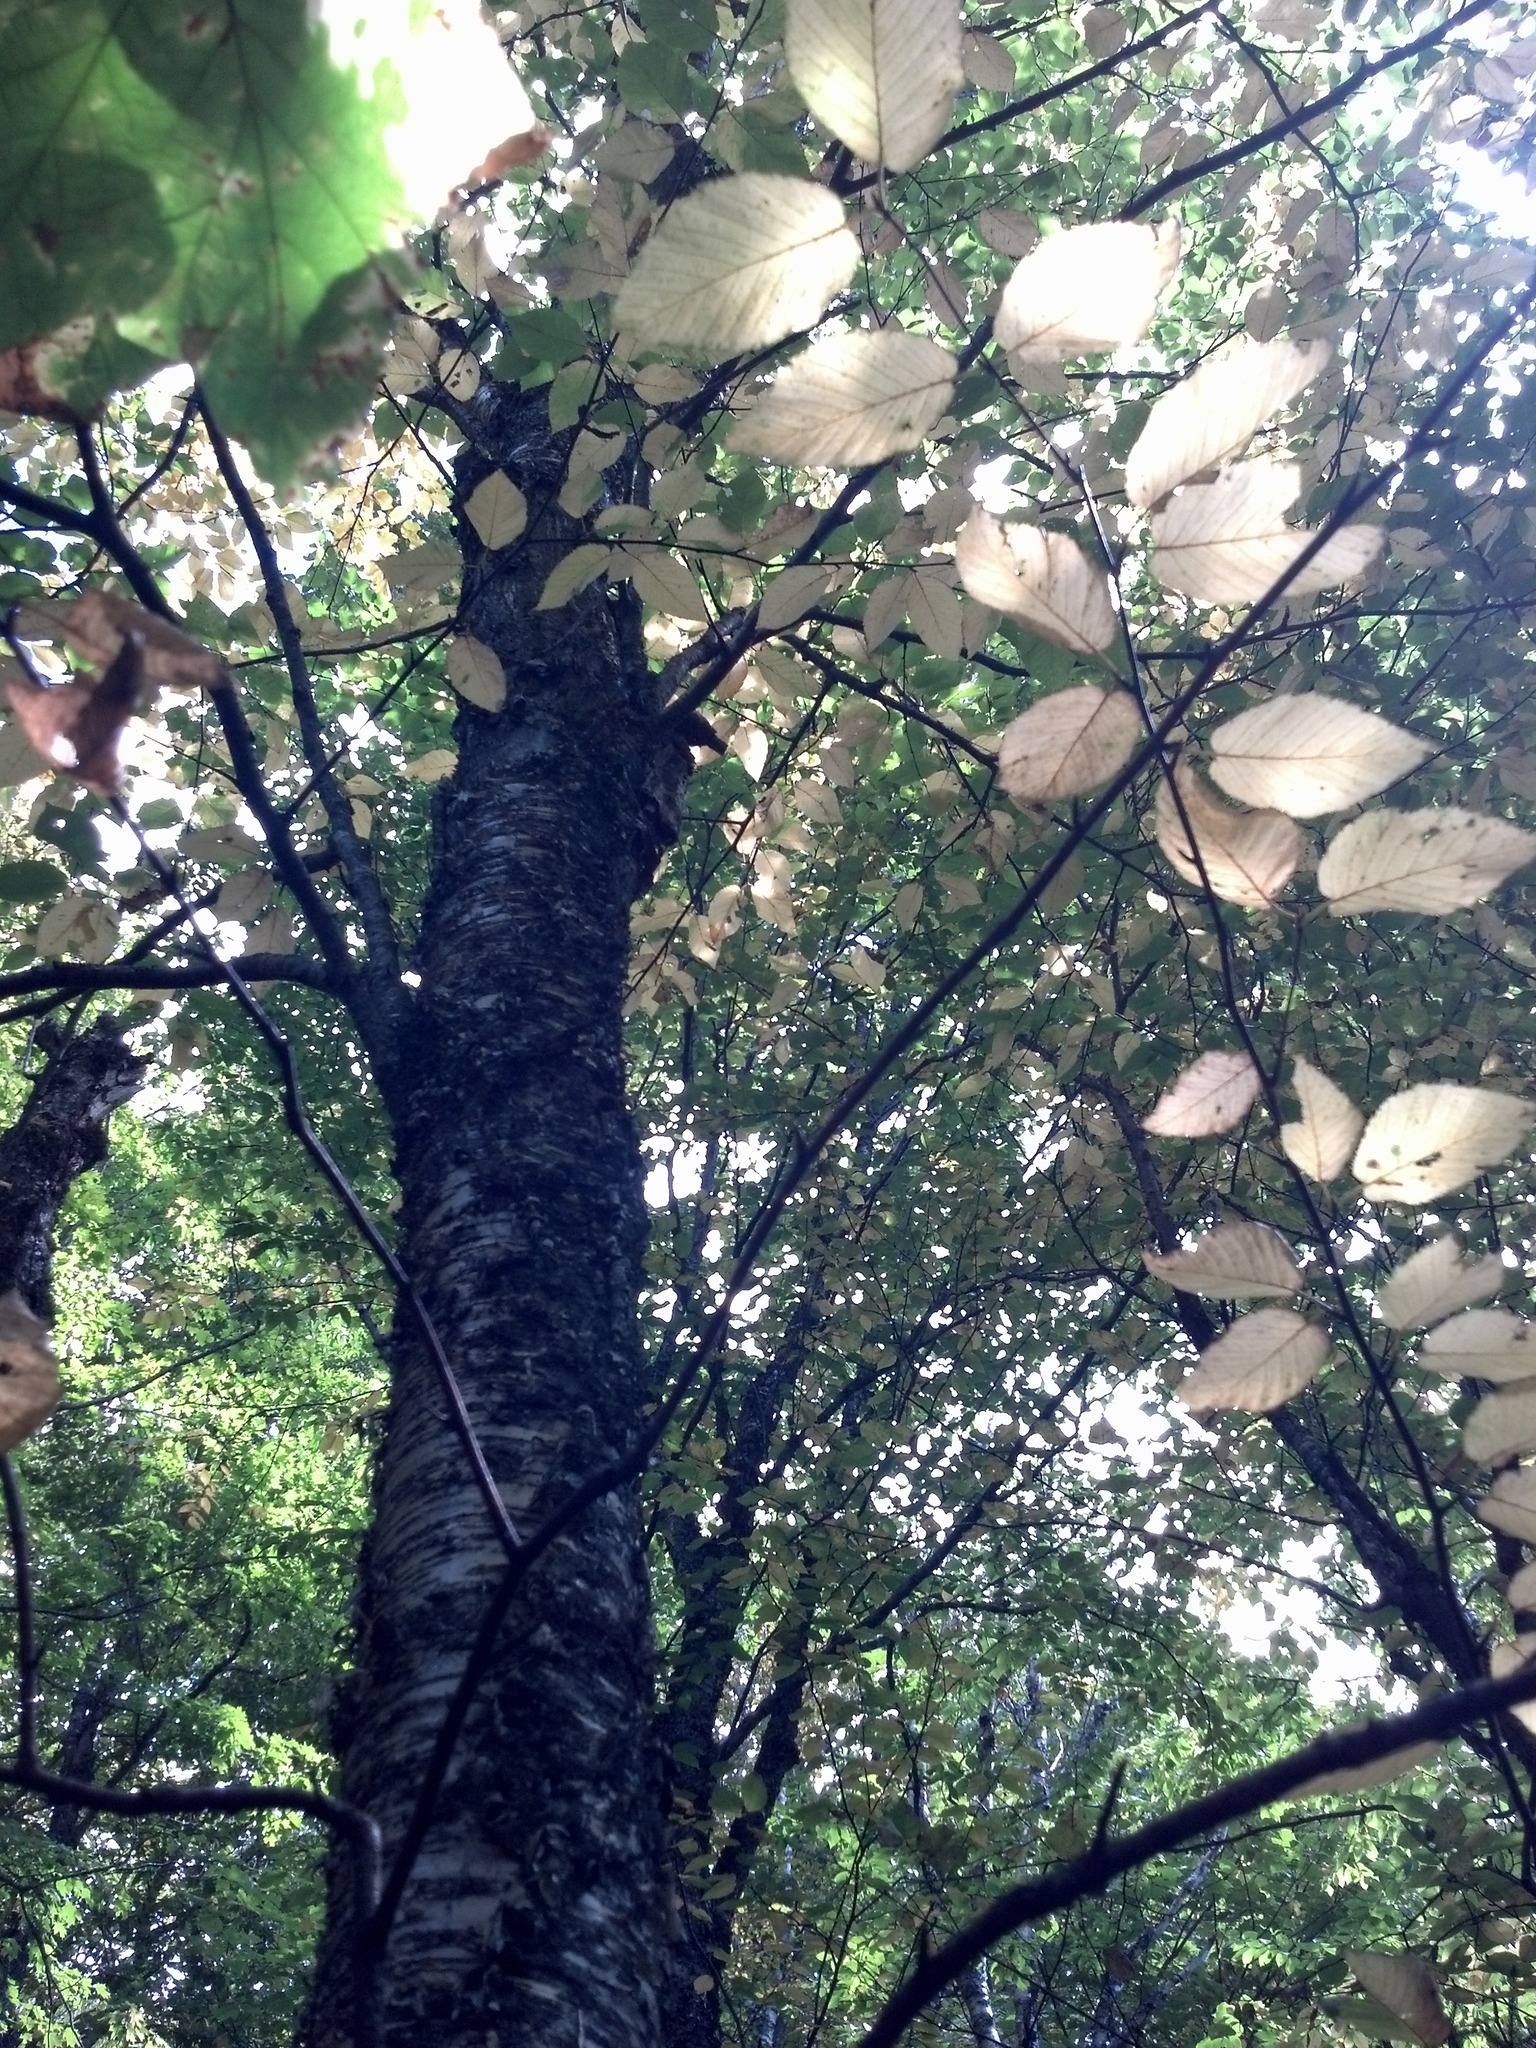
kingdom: Plantae
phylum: Tracheophyta
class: Magnoliopsida
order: Fagales
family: Betulaceae
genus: Betula
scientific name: Betula alleghaniensis
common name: Yellow birch
